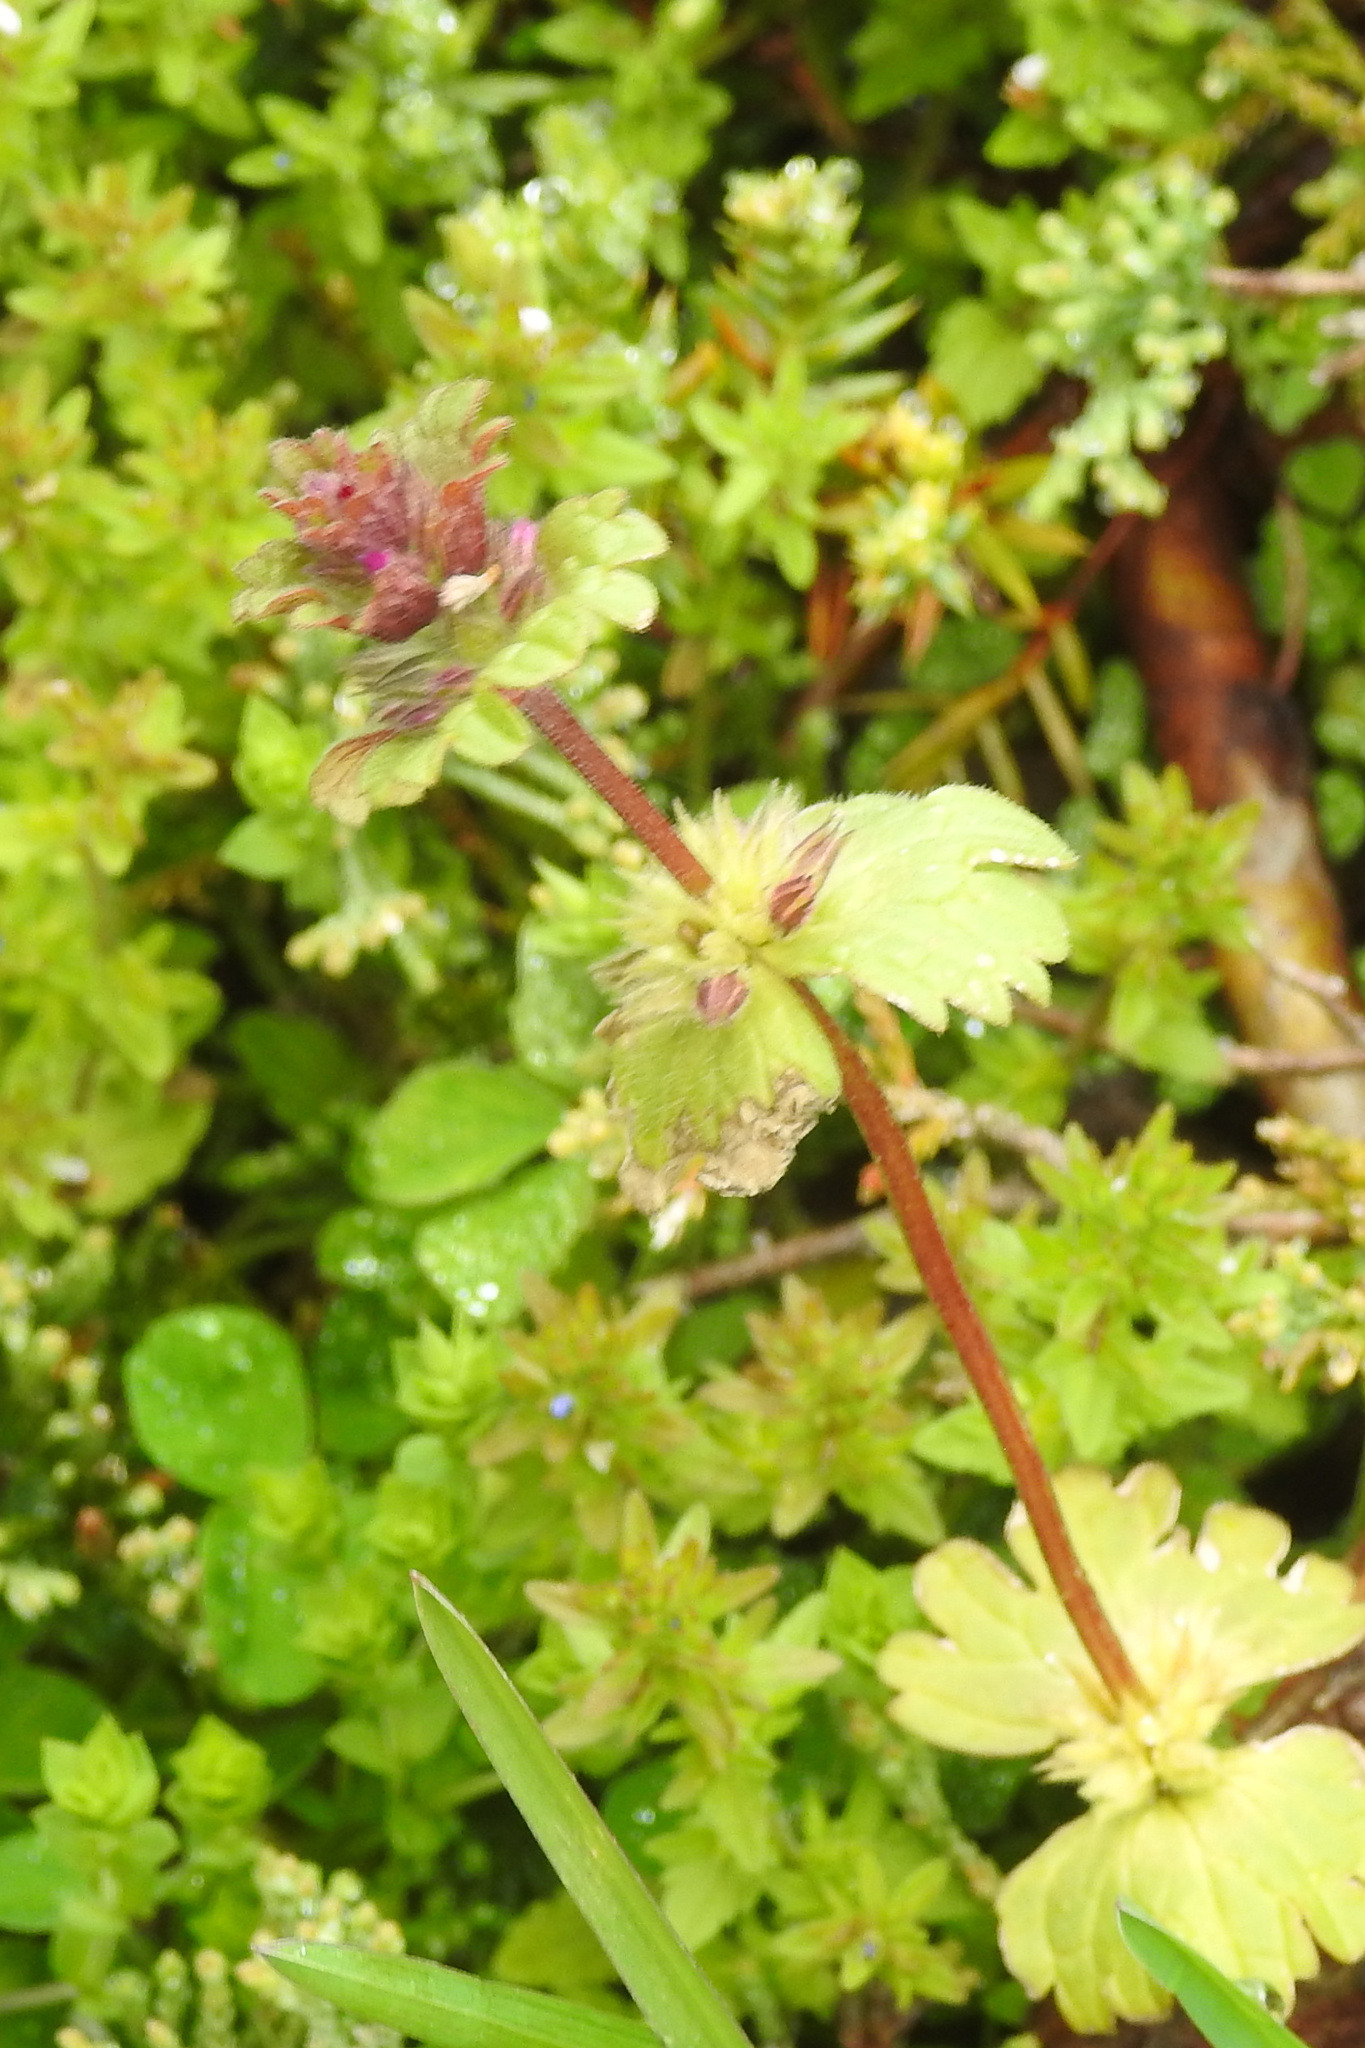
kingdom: Plantae
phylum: Tracheophyta
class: Magnoliopsida
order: Lamiales
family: Lamiaceae
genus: Lamium
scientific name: Lamium amplexicaule
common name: Henbit dead-nettle
